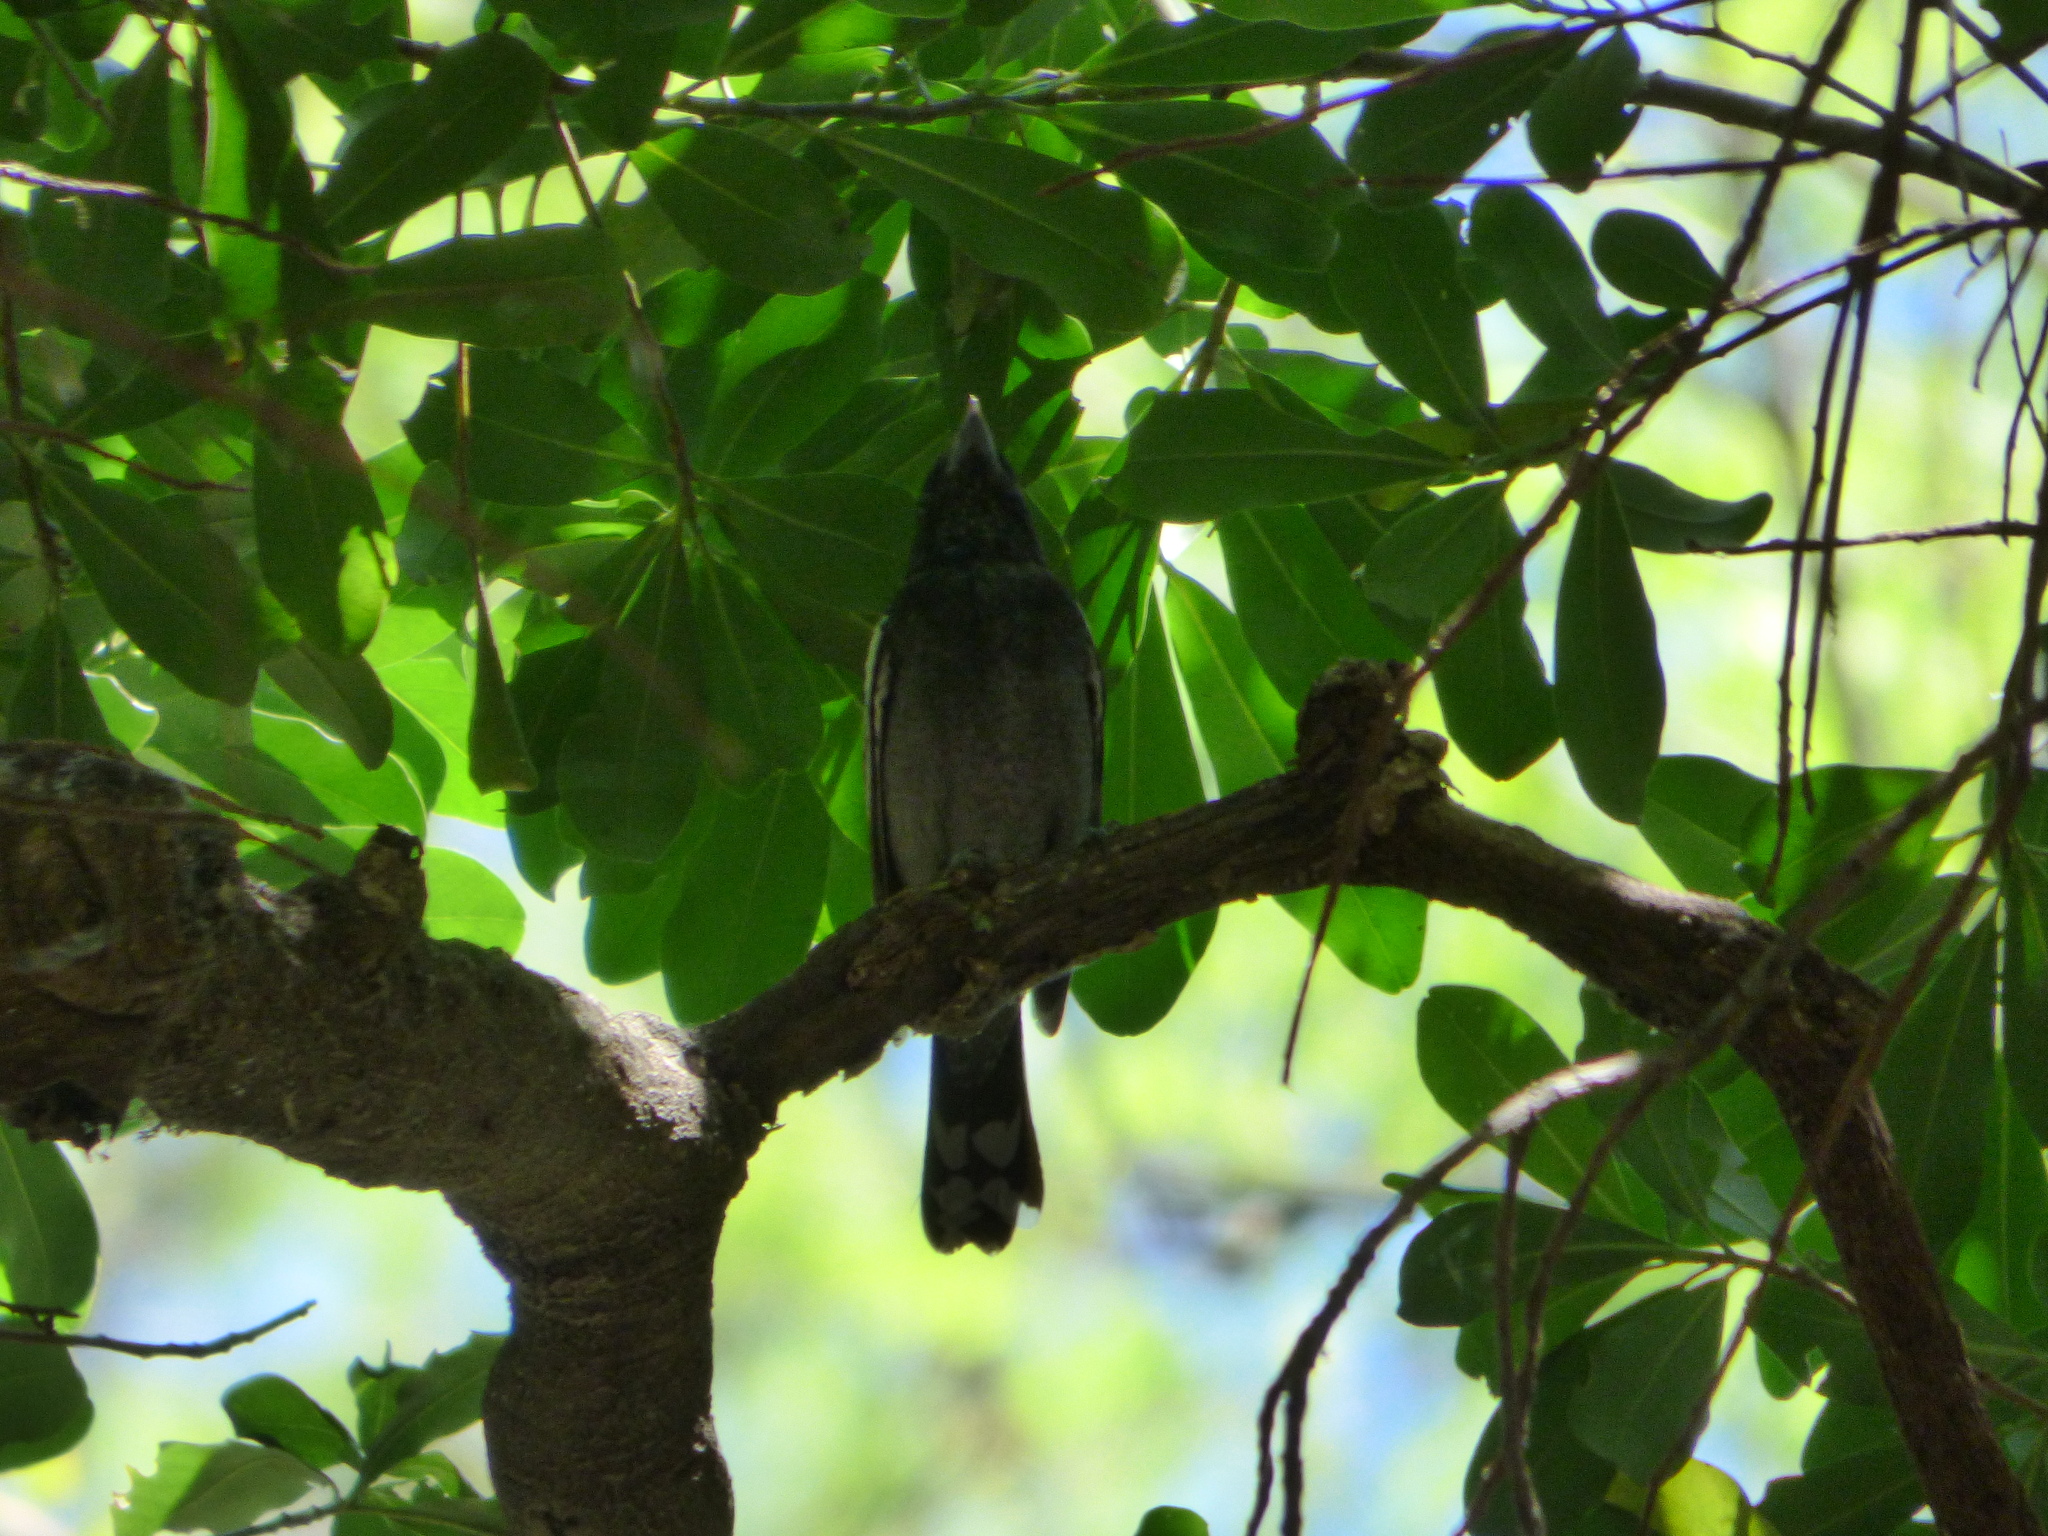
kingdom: Animalia
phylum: Chordata
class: Aves
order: Passeriformes
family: Cotingidae
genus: Pachyramphus
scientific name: Pachyramphus polychopterus
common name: White-winged becard
